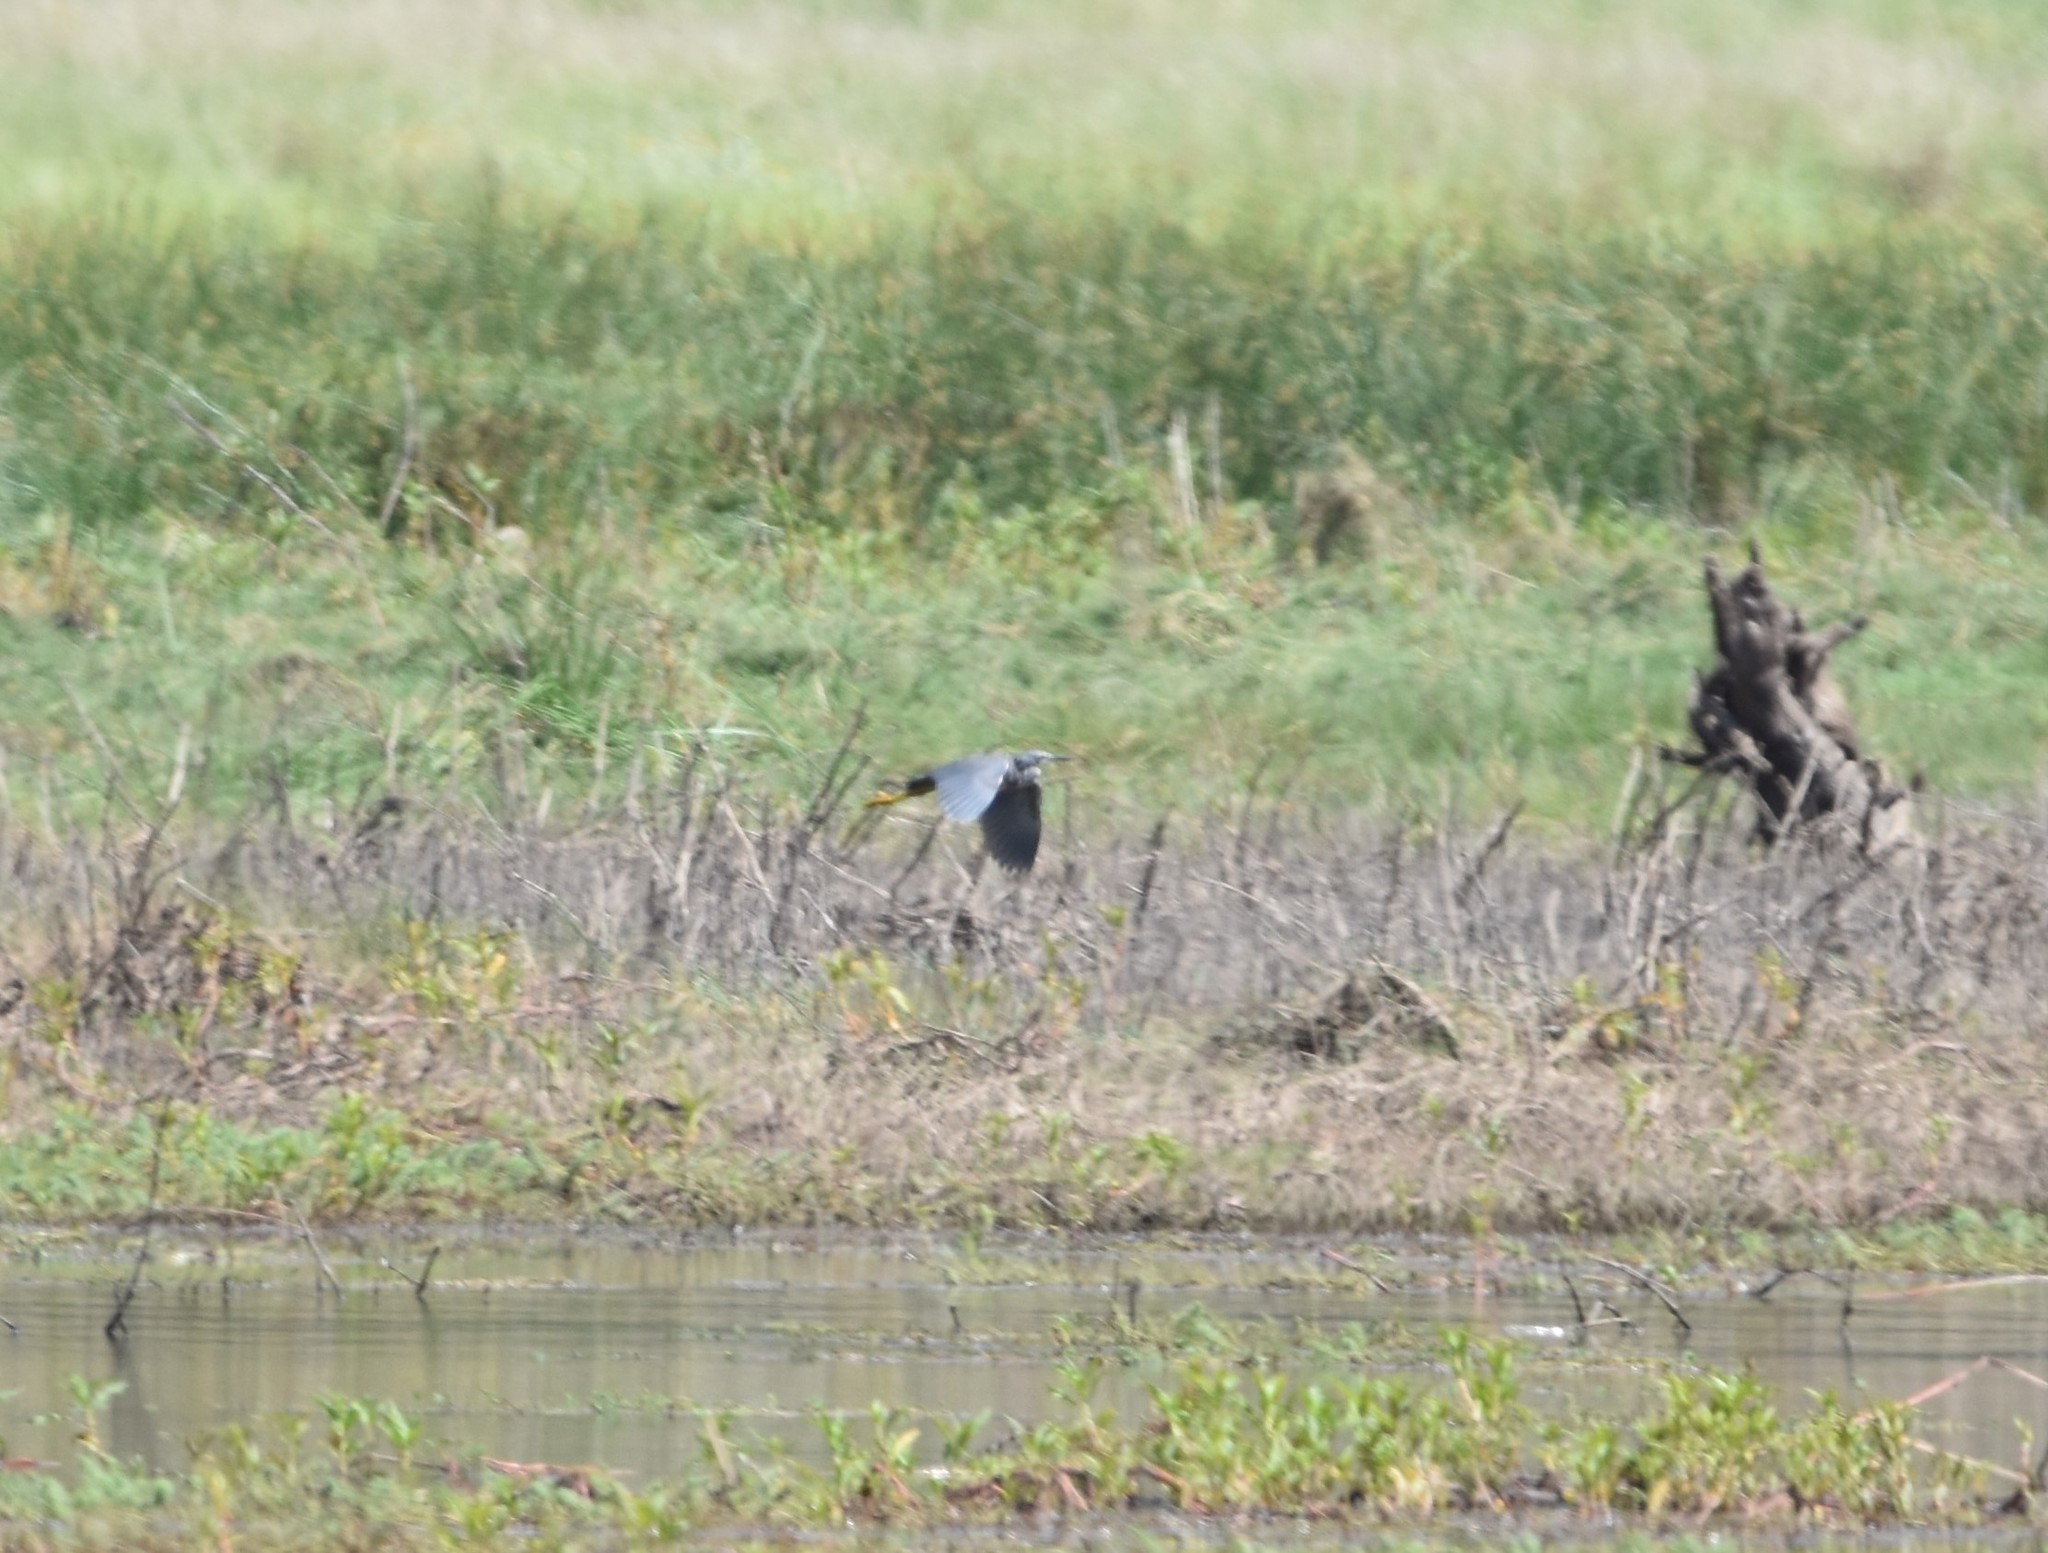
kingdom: Animalia
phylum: Chordata
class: Aves
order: Pelecaniformes
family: Ardeidae
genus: Egretta
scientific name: Egretta vinaceigula
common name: Slaty egret
